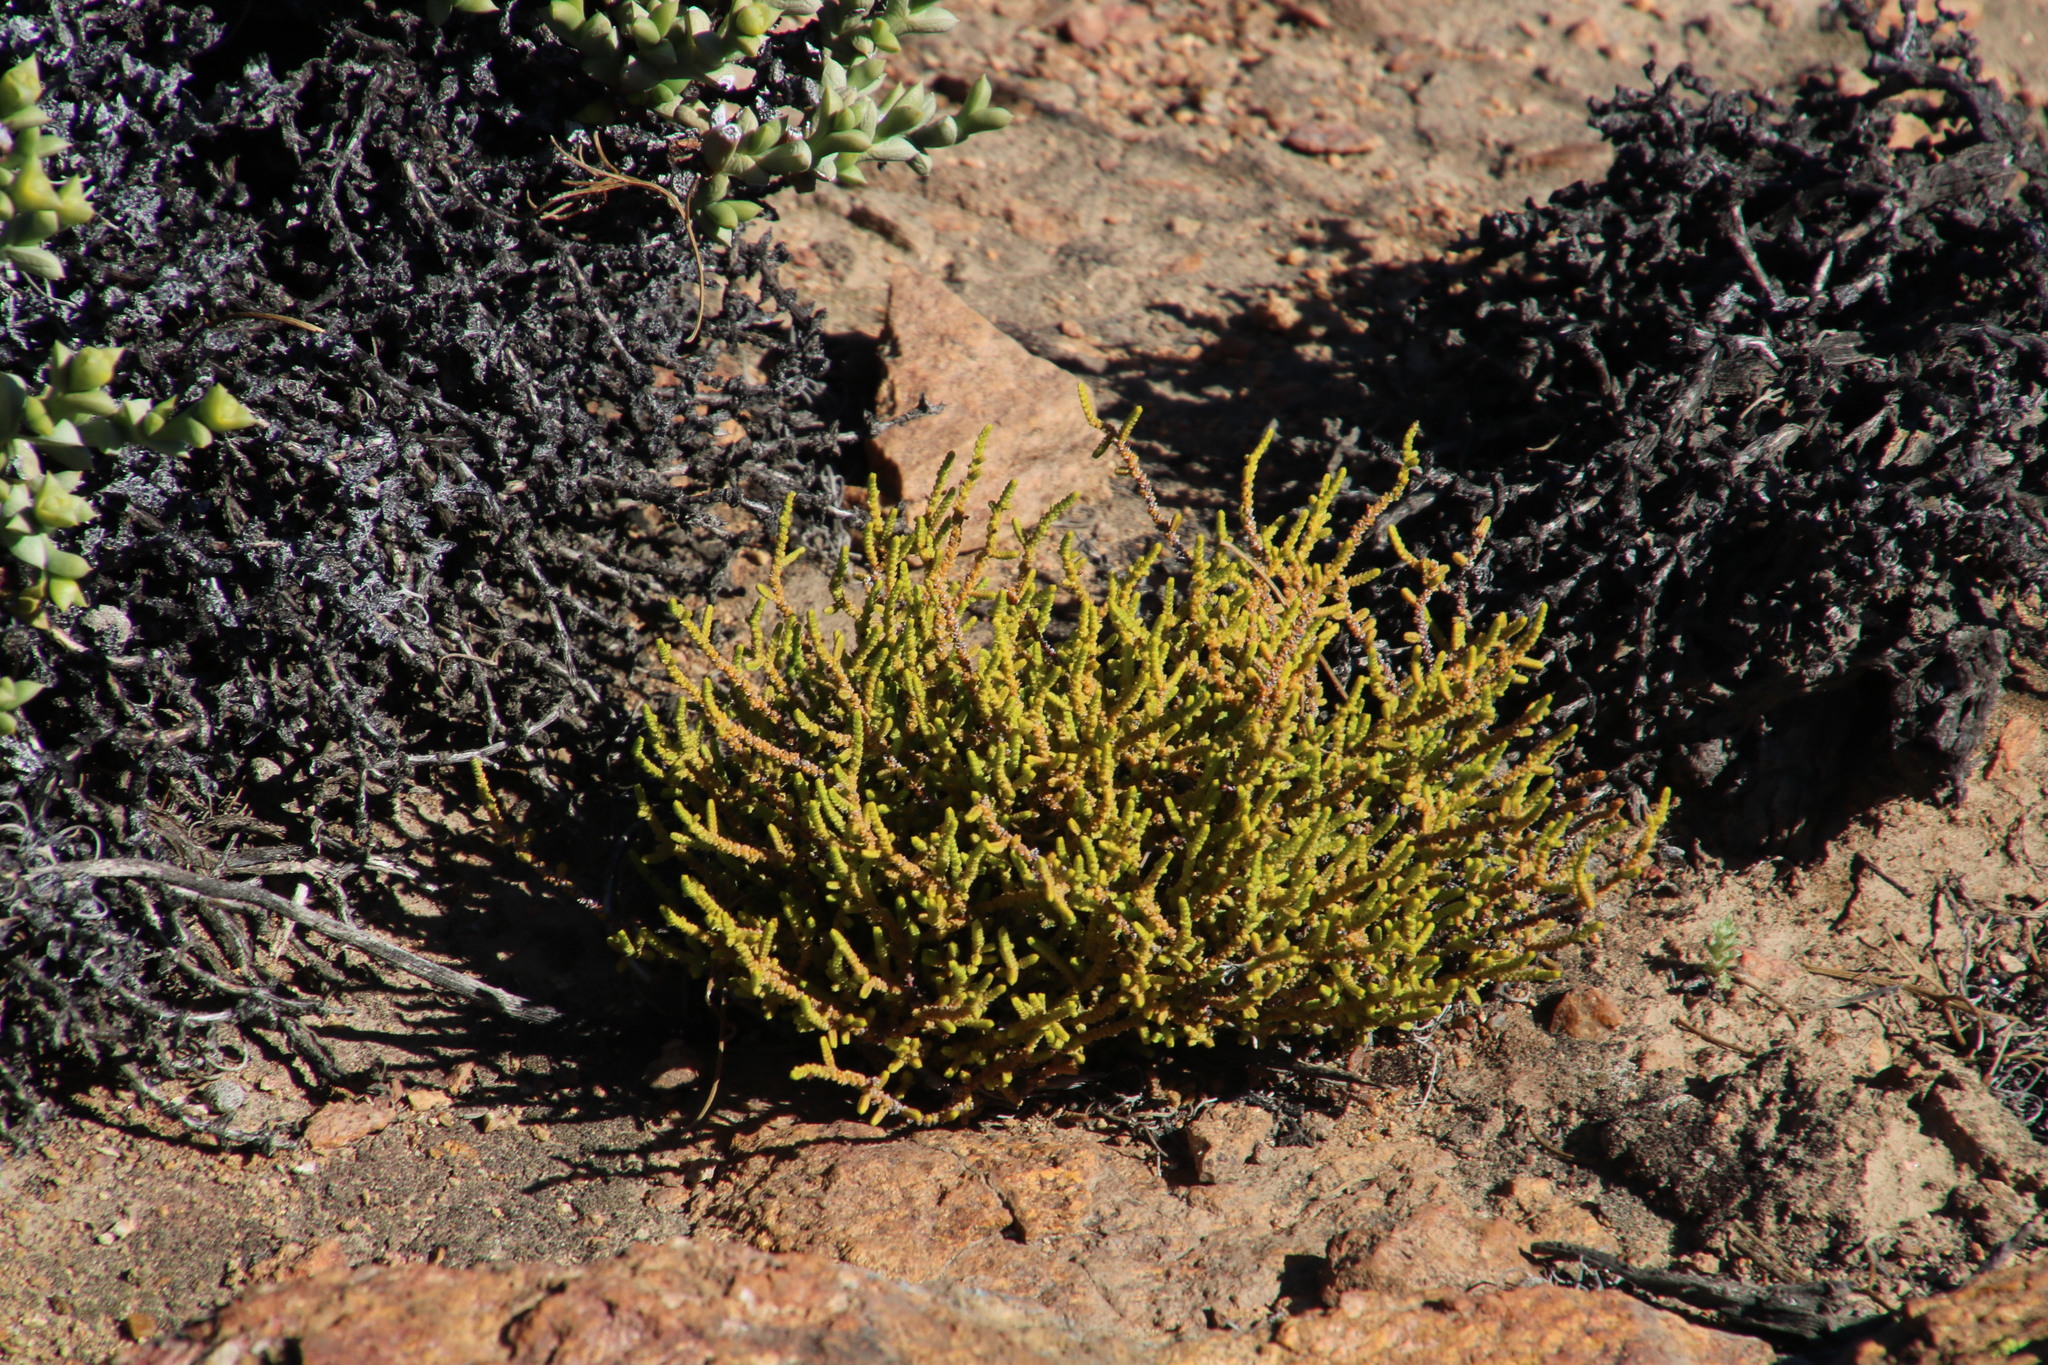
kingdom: Plantae
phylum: Tracheophyta
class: Magnoliopsida
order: Saxifragales
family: Crassulaceae
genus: Crassula
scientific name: Crassula muscosa
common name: Toy-cypress
